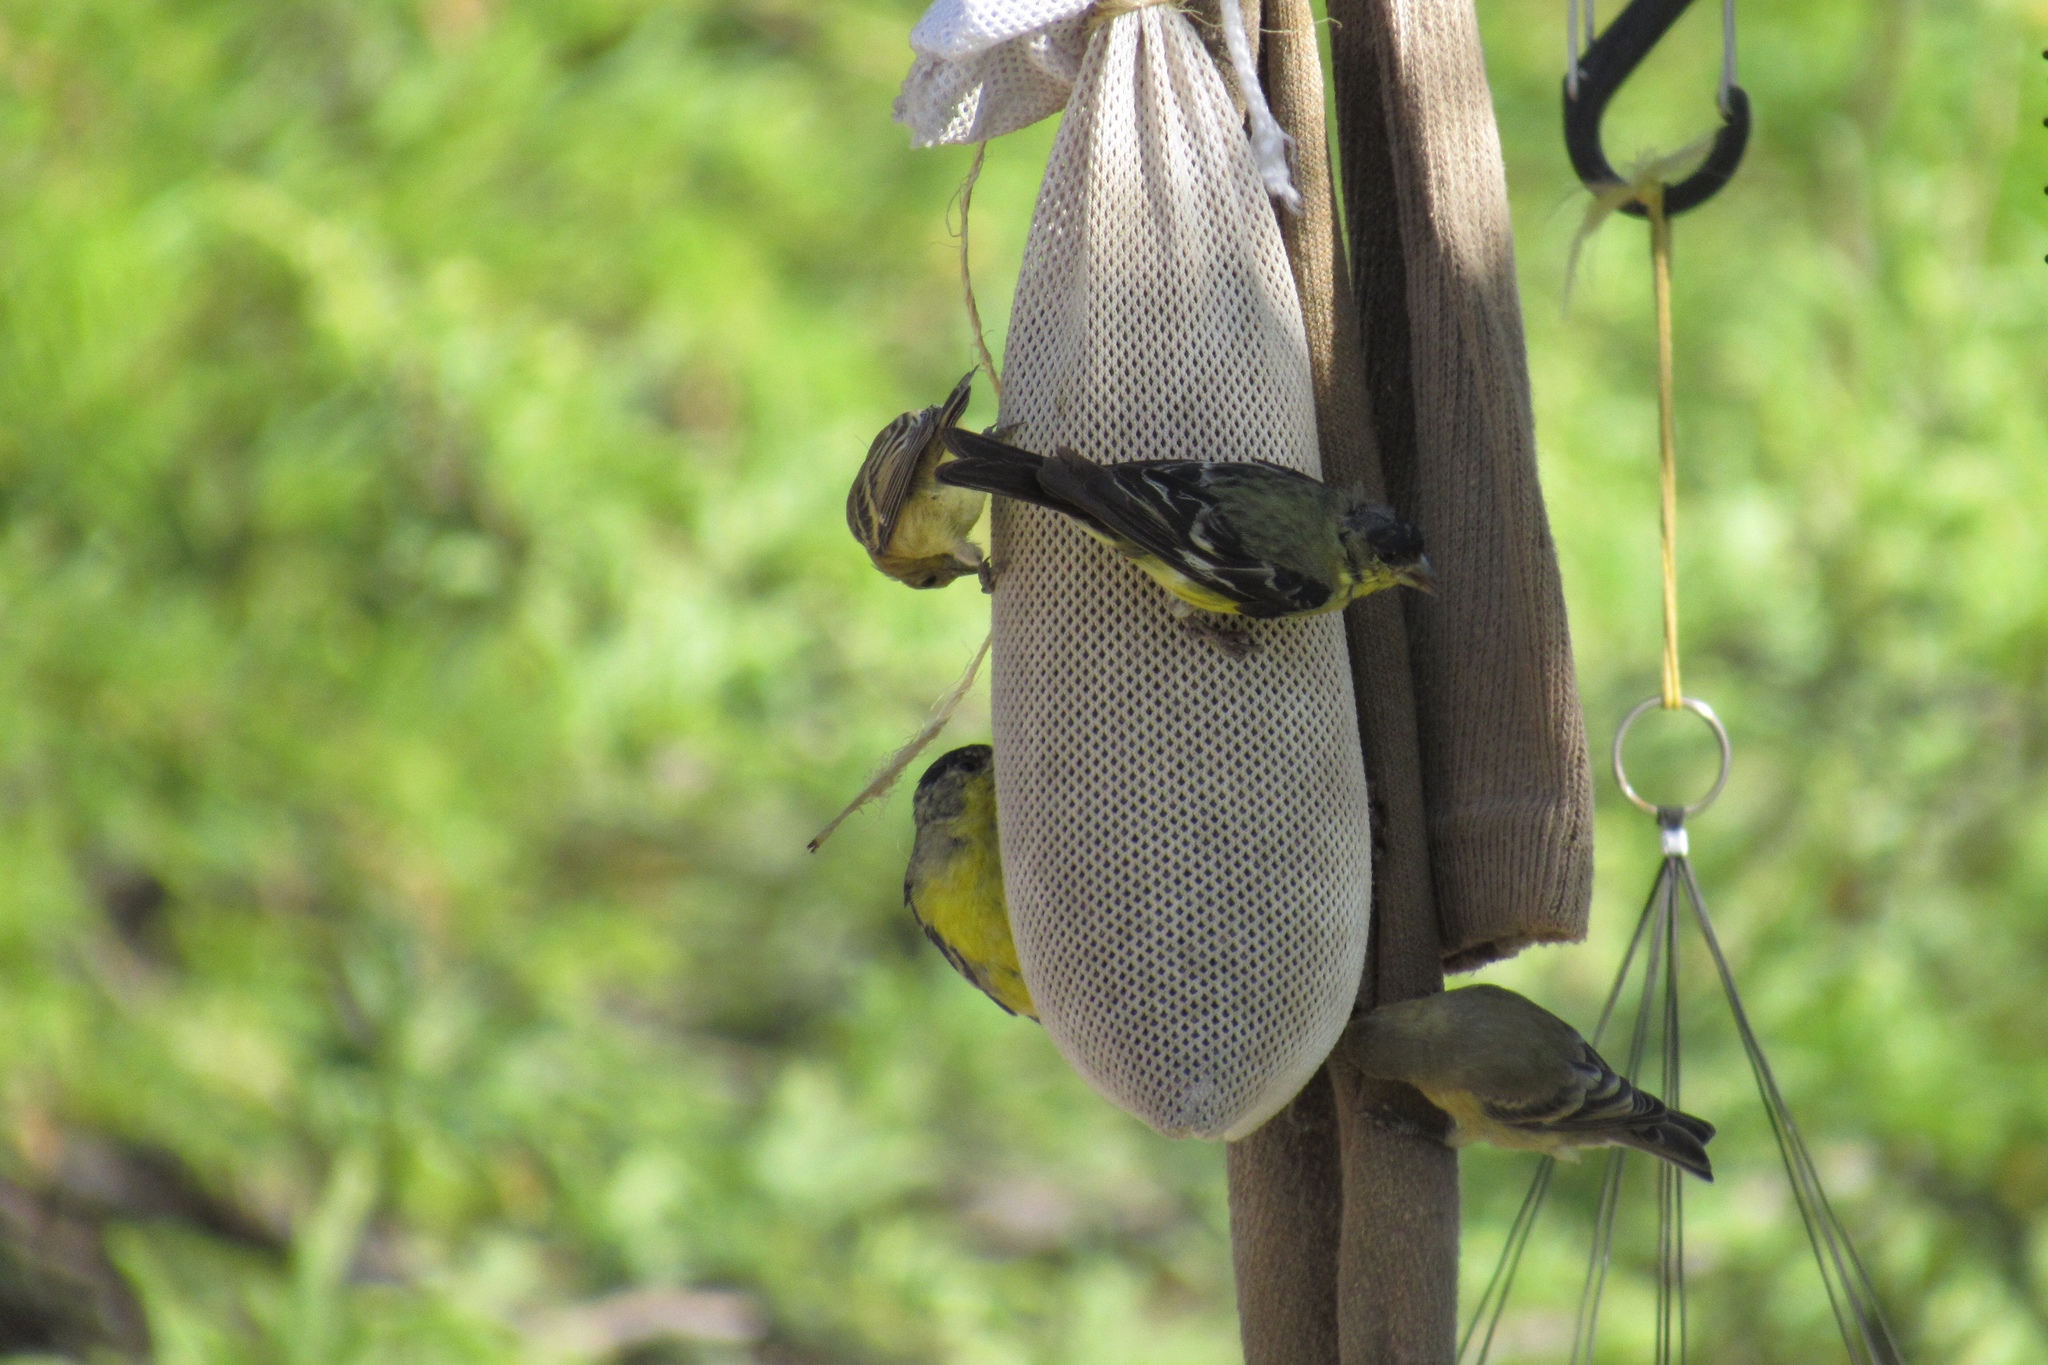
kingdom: Animalia
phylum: Chordata
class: Aves
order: Passeriformes
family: Fringillidae
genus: Spinus
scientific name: Spinus psaltria
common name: Lesser goldfinch
